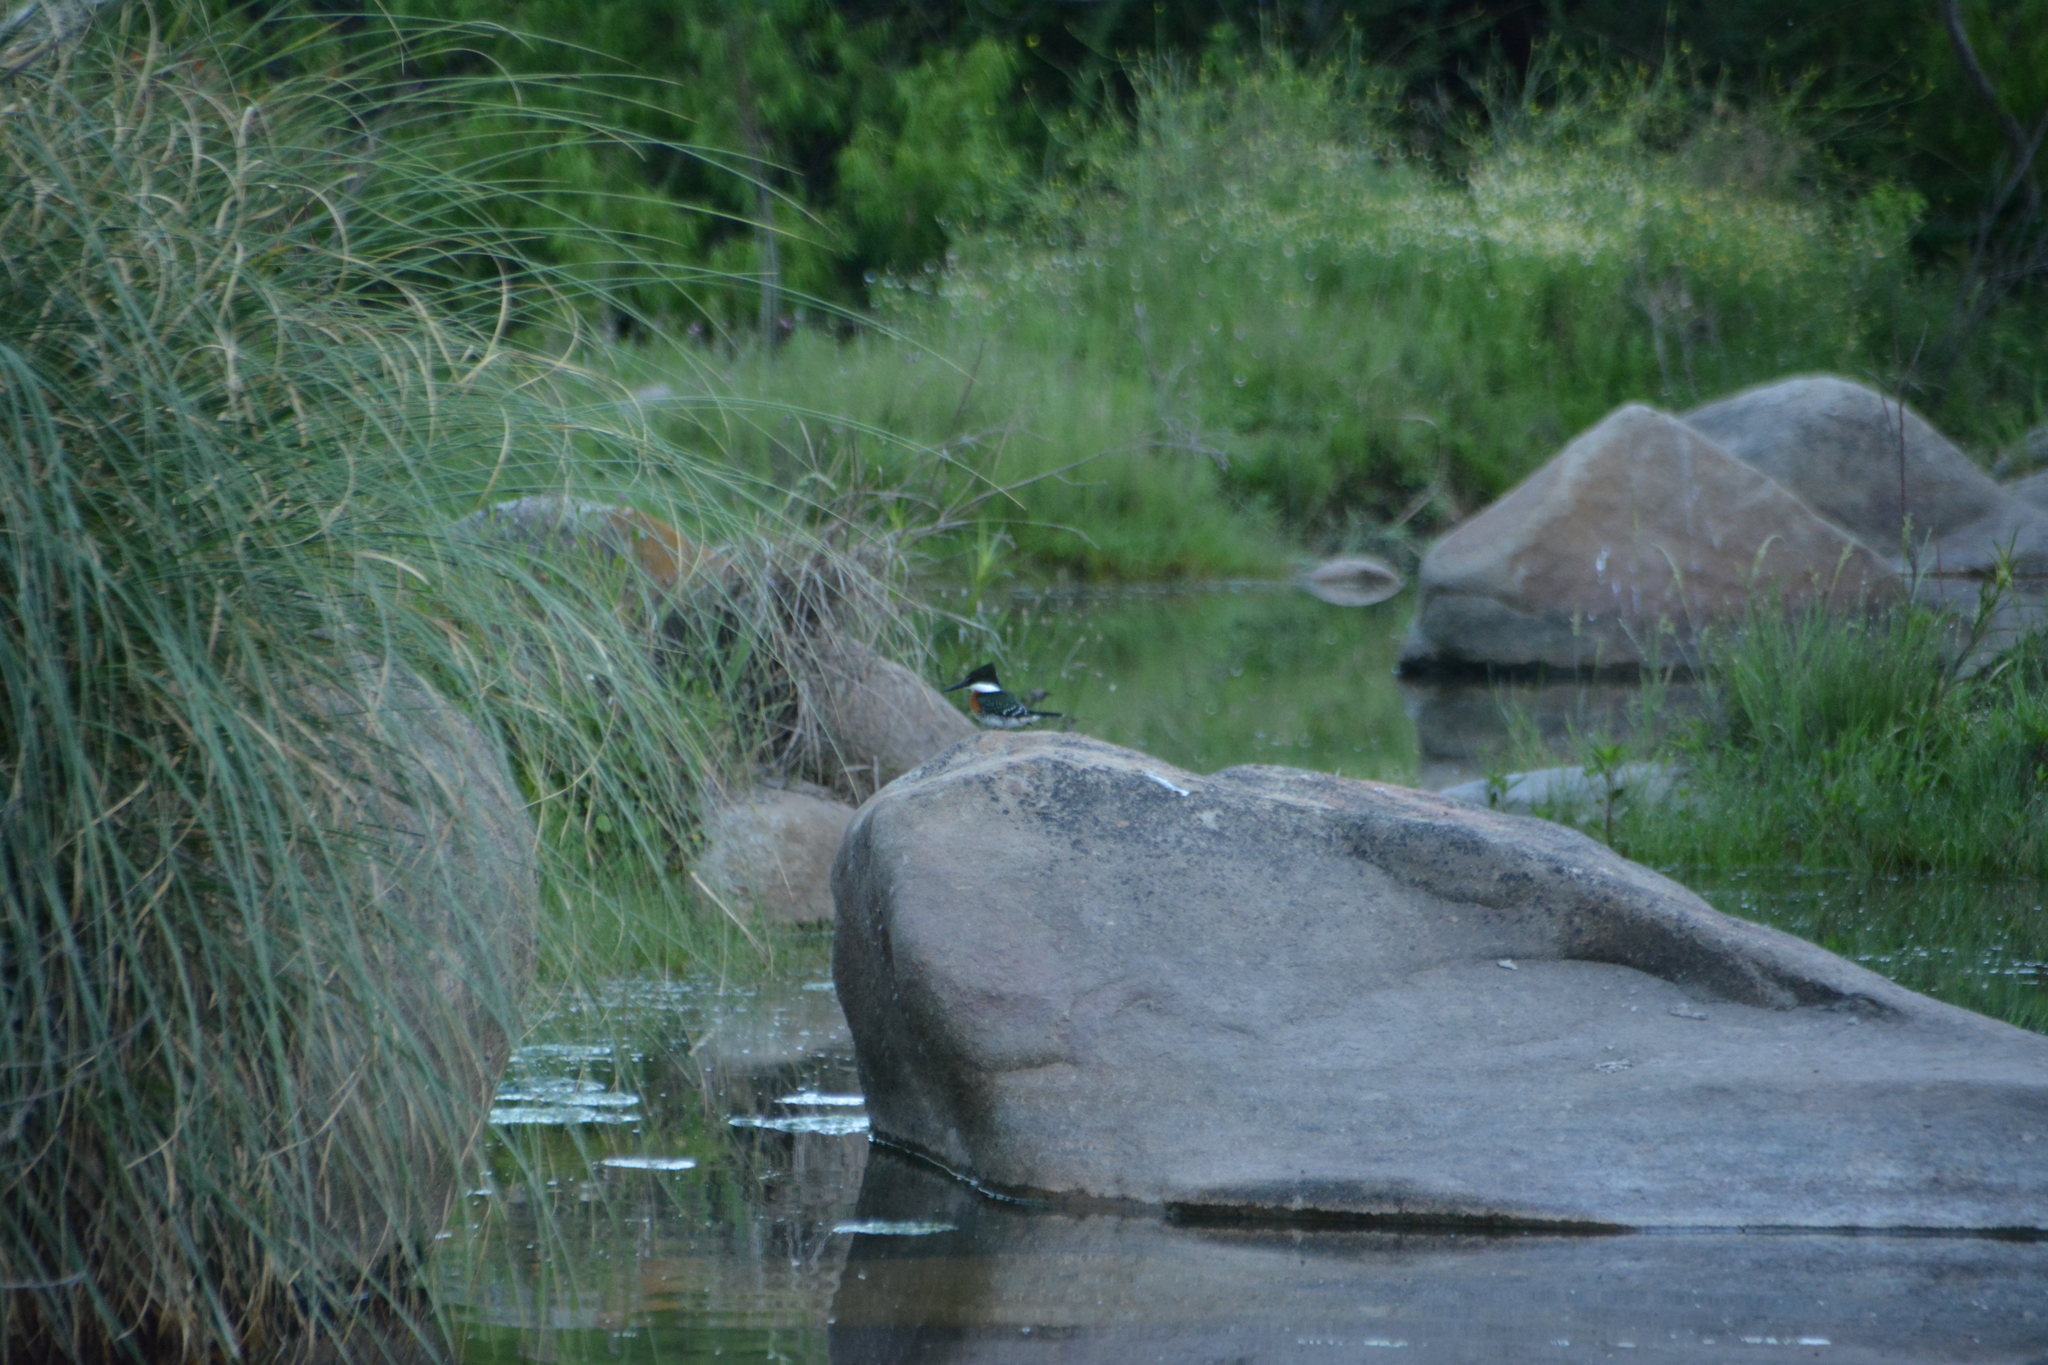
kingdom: Animalia
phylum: Chordata
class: Aves
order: Coraciiformes
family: Alcedinidae
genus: Chloroceryle
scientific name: Chloroceryle americana
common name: Green kingfisher
